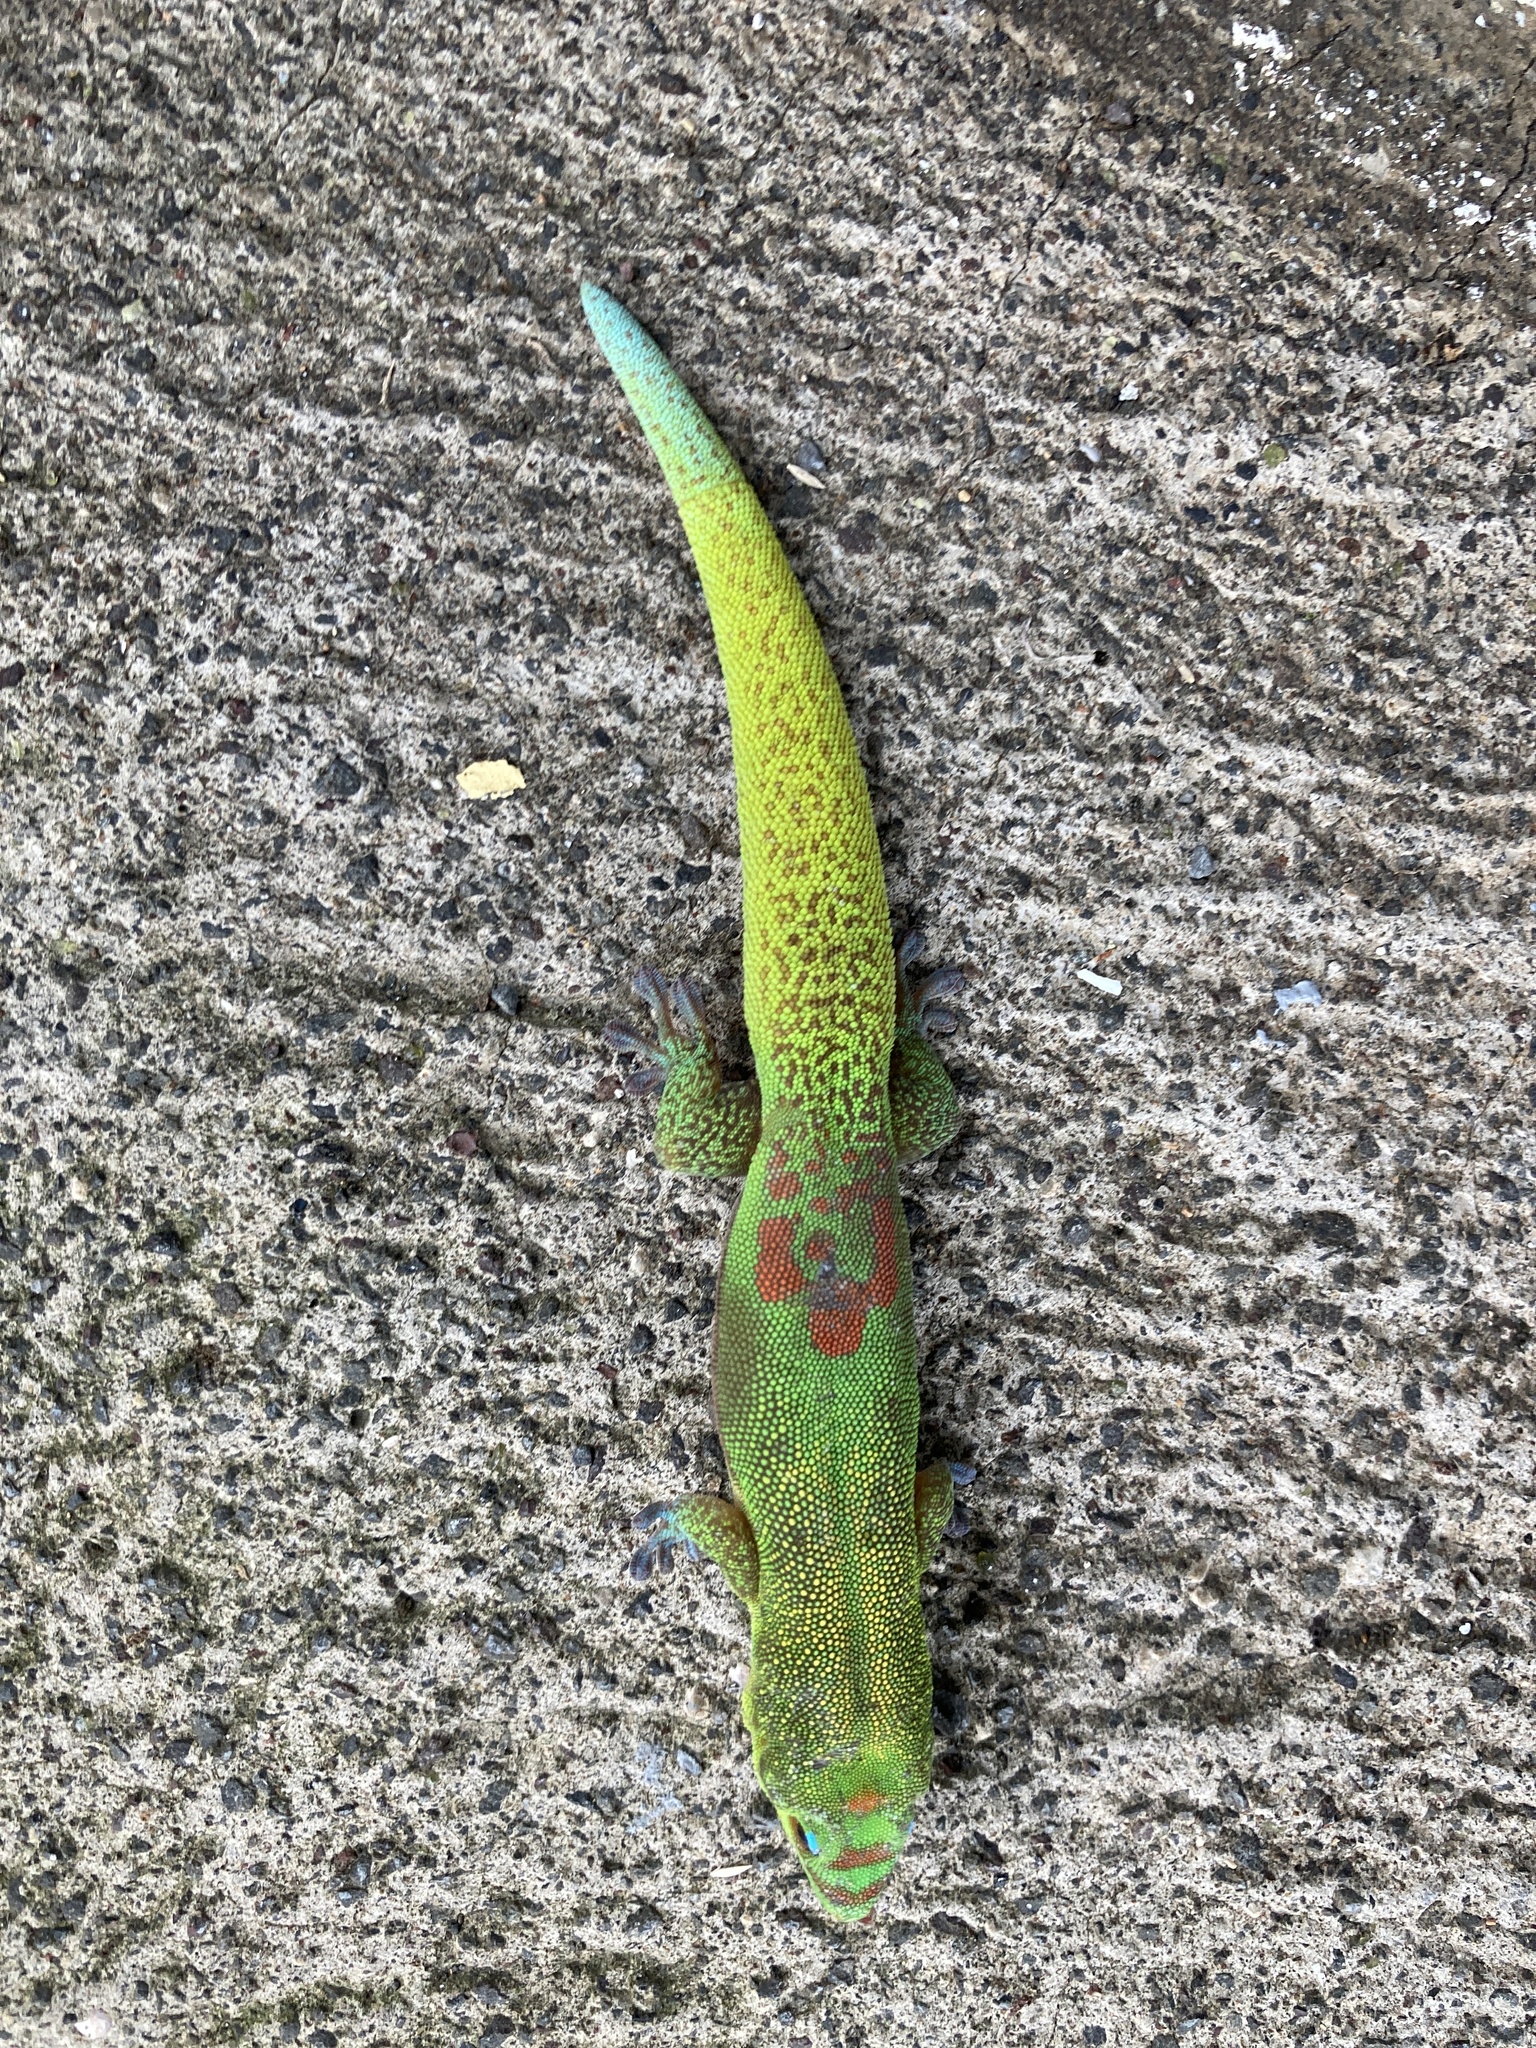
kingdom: Animalia
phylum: Chordata
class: Squamata
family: Gekkonidae
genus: Phelsuma
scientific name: Phelsuma laticauda
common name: Gold dust day gecko
